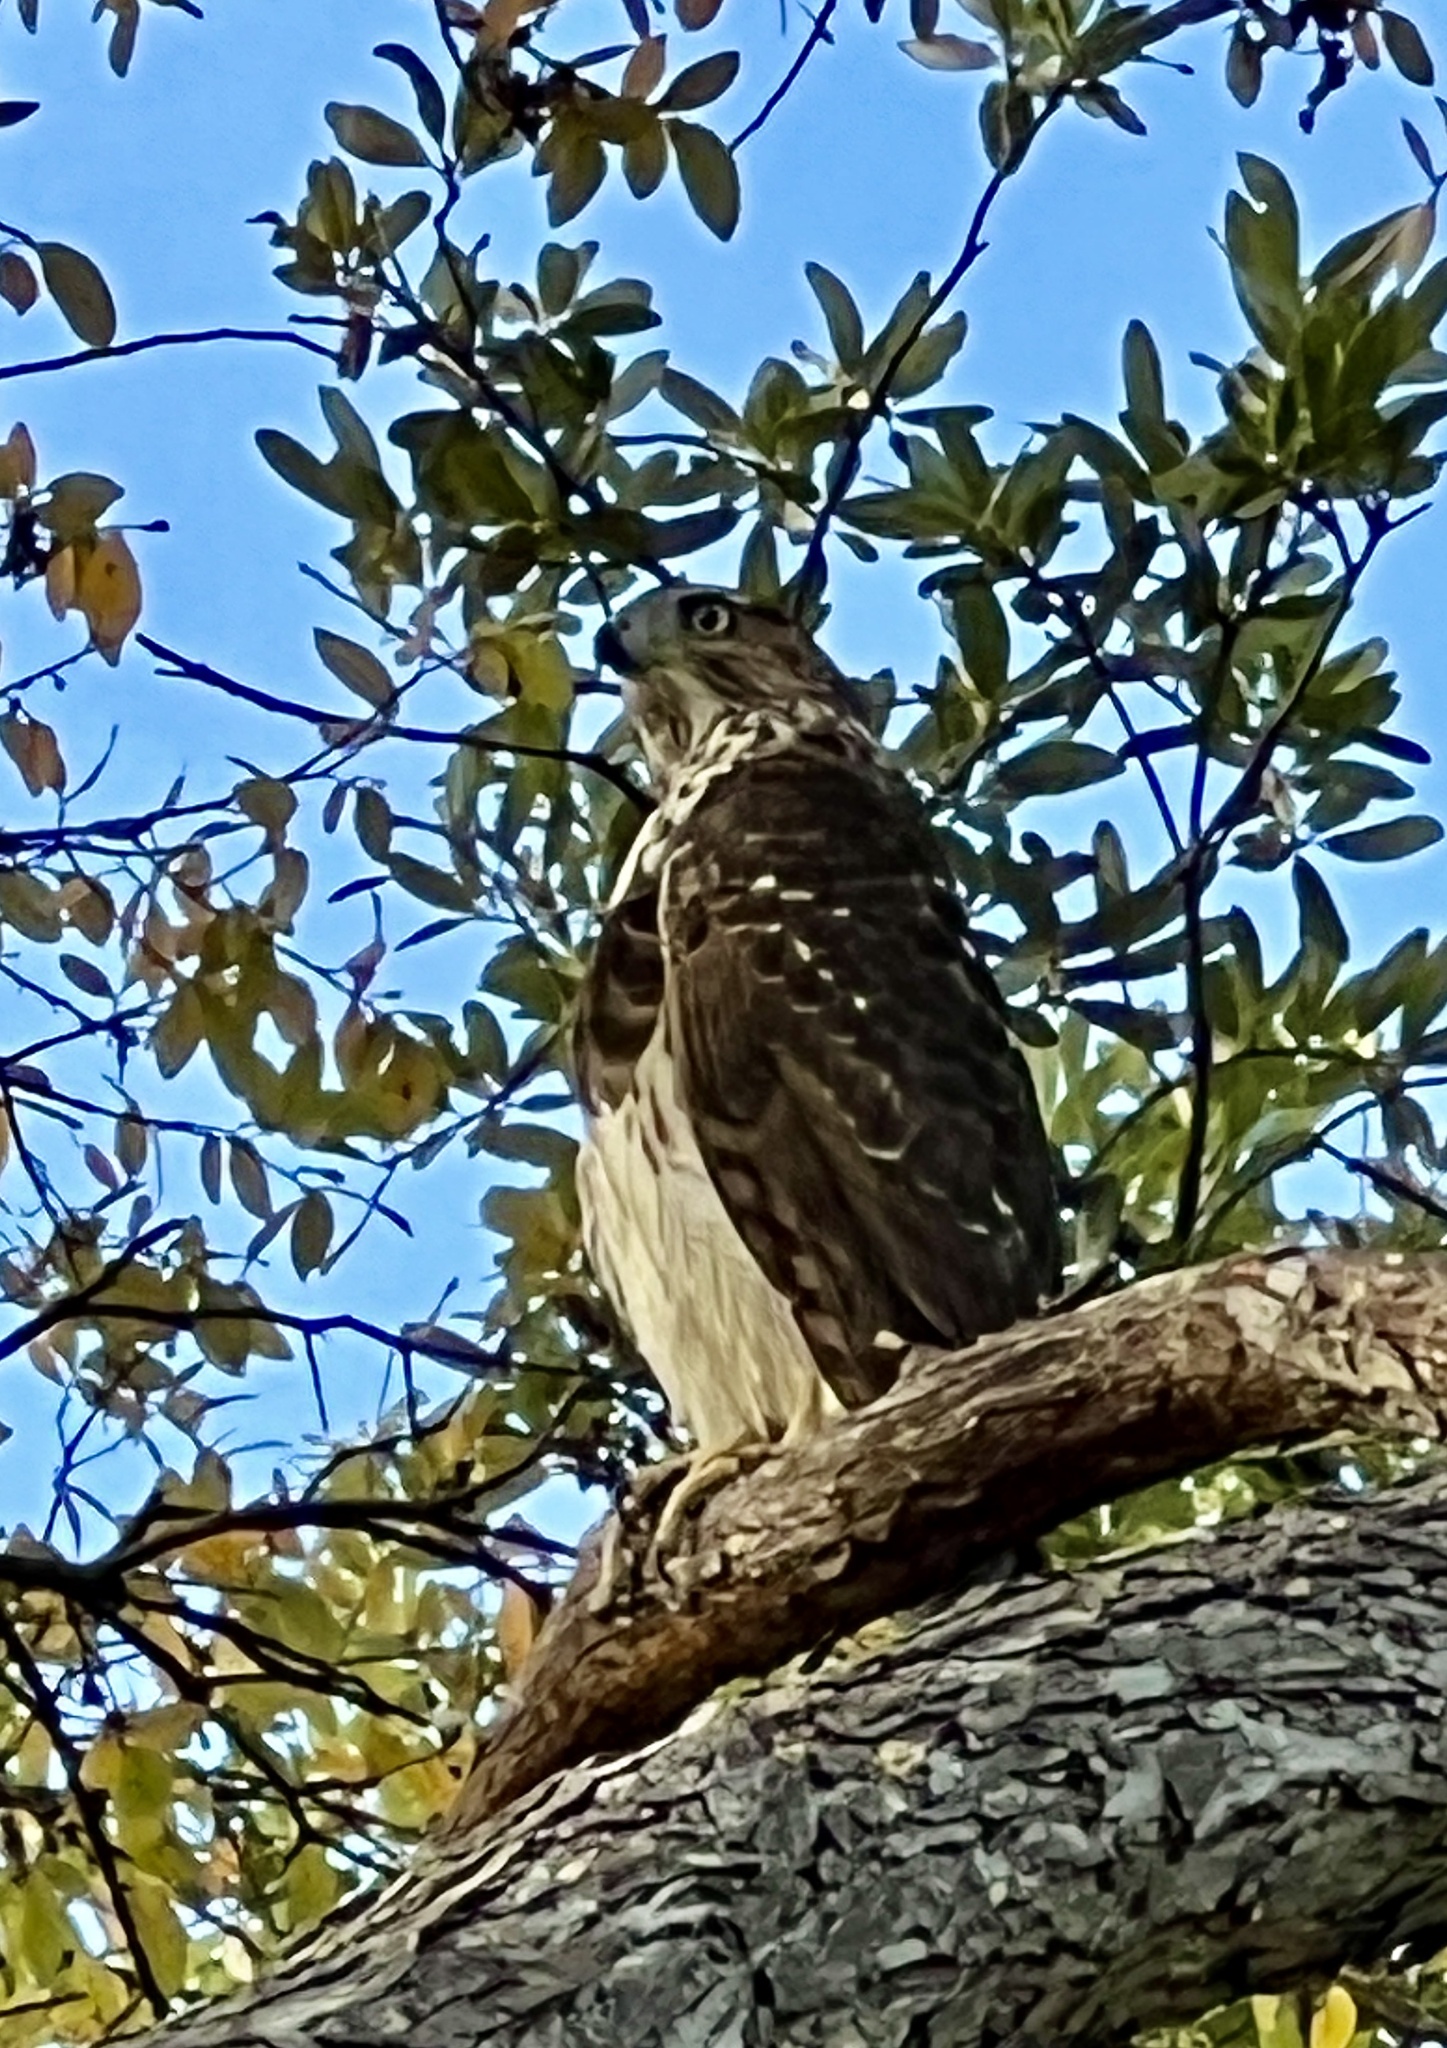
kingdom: Animalia
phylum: Chordata
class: Aves
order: Accipitriformes
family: Accipitridae
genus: Accipiter
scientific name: Accipiter cooperii
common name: Cooper's hawk
